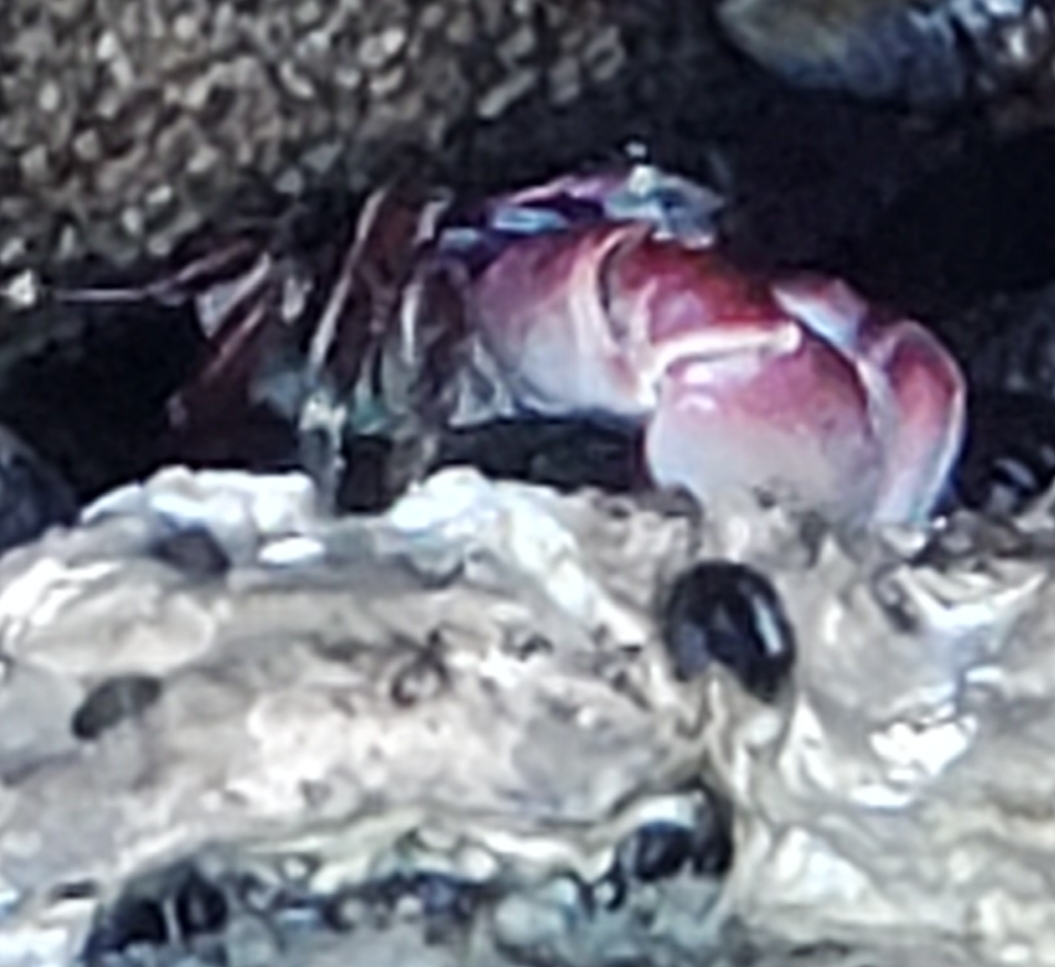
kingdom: Animalia
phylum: Arthropoda
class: Malacostraca
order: Decapoda
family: Grapsidae
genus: Pachygrapsus
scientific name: Pachygrapsus crassipes
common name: Striped shore crab
